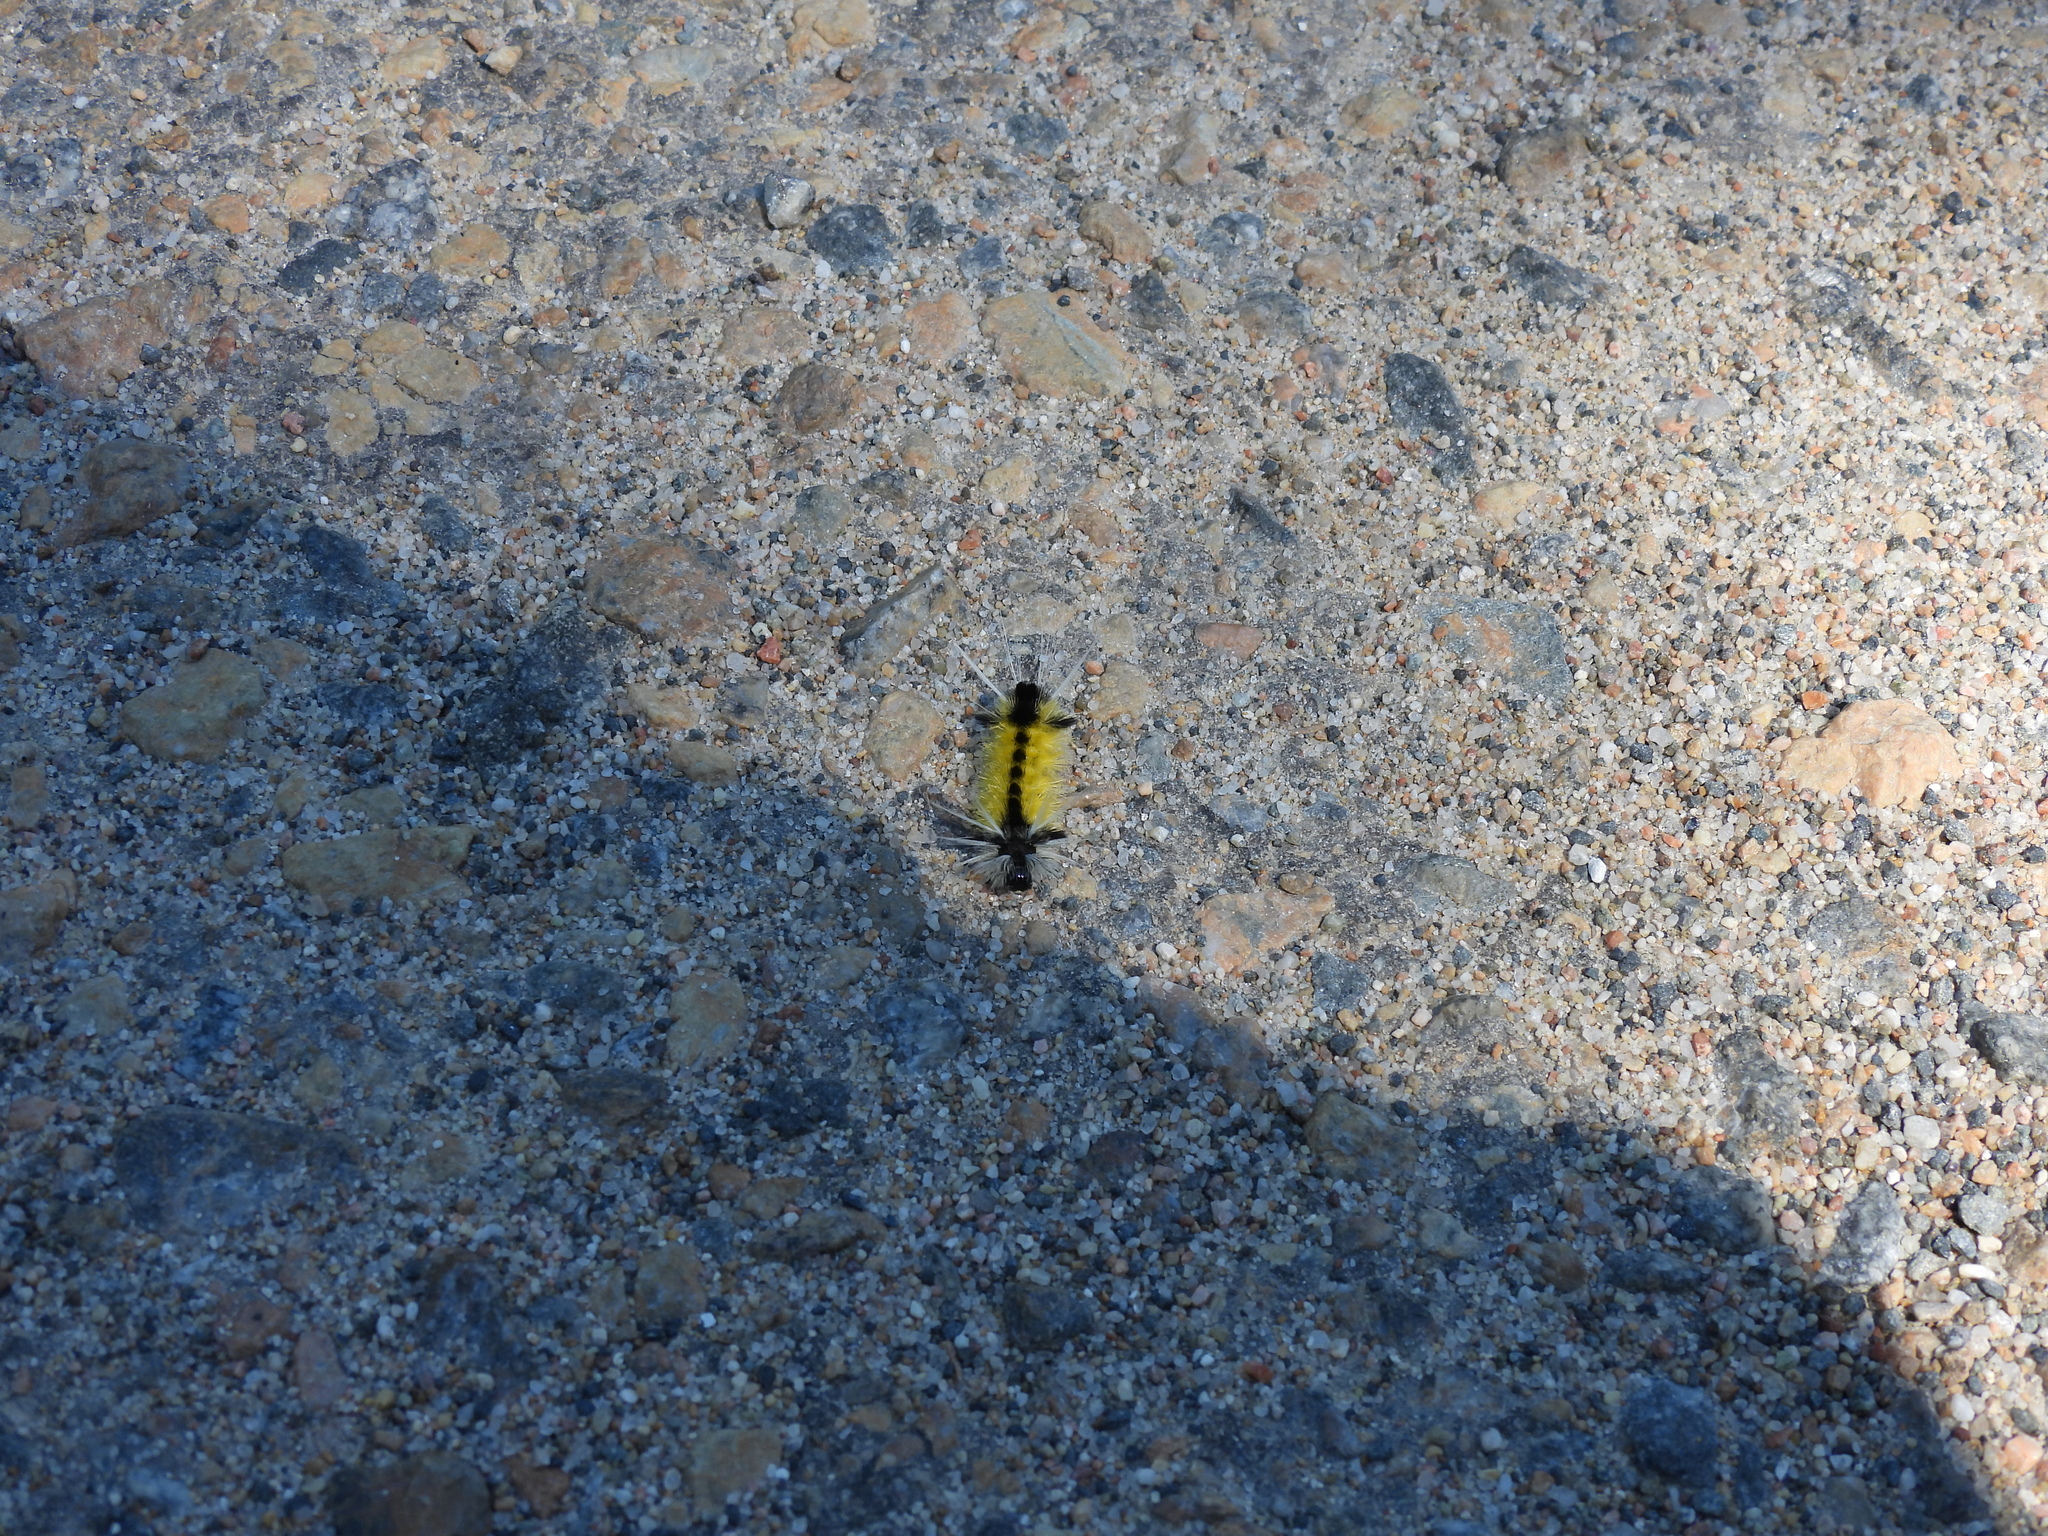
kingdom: Animalia
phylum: Arthropoda
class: Insecta
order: Lepidoptera
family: Erebidae
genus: Lophocampa
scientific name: Lophocampa maculata
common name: Spotted tussock moth
